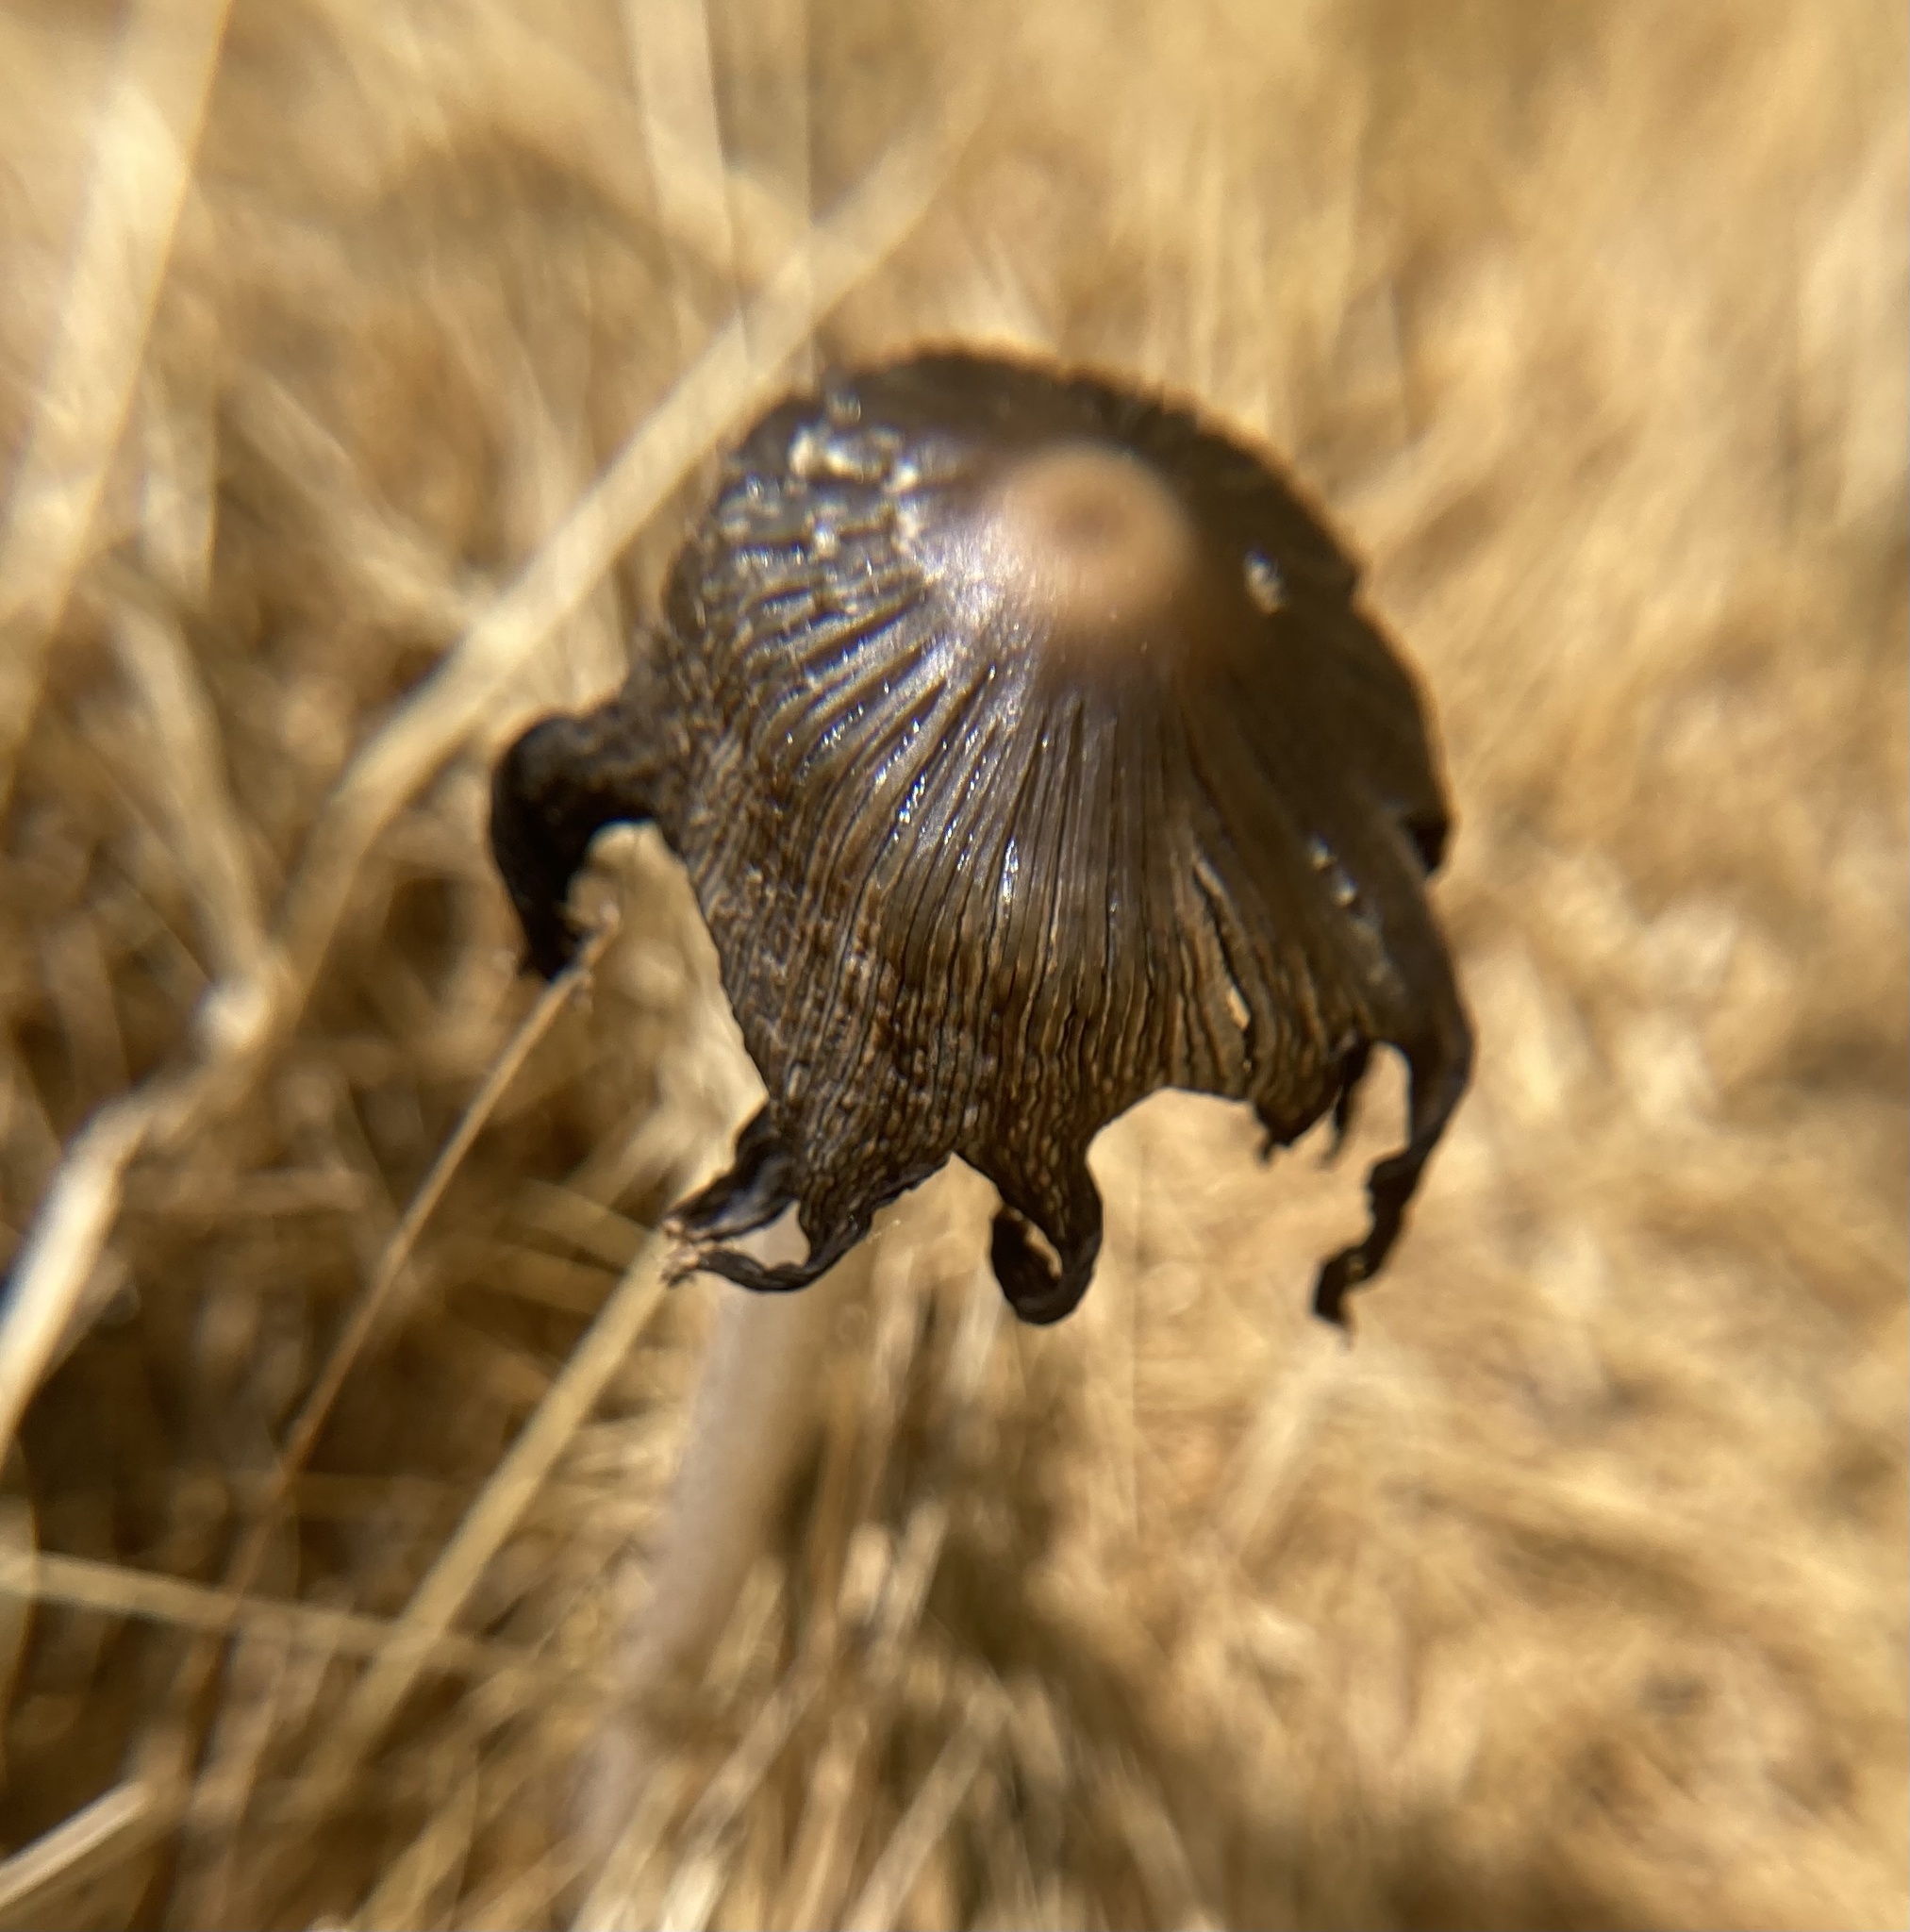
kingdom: Fungi
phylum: Basidiomycota
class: Agaricomycetes
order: Agaricales
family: Psathyrellaceae
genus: Coprinellus
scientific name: Coprinellus flocculosus
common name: Flocculose inkcap
